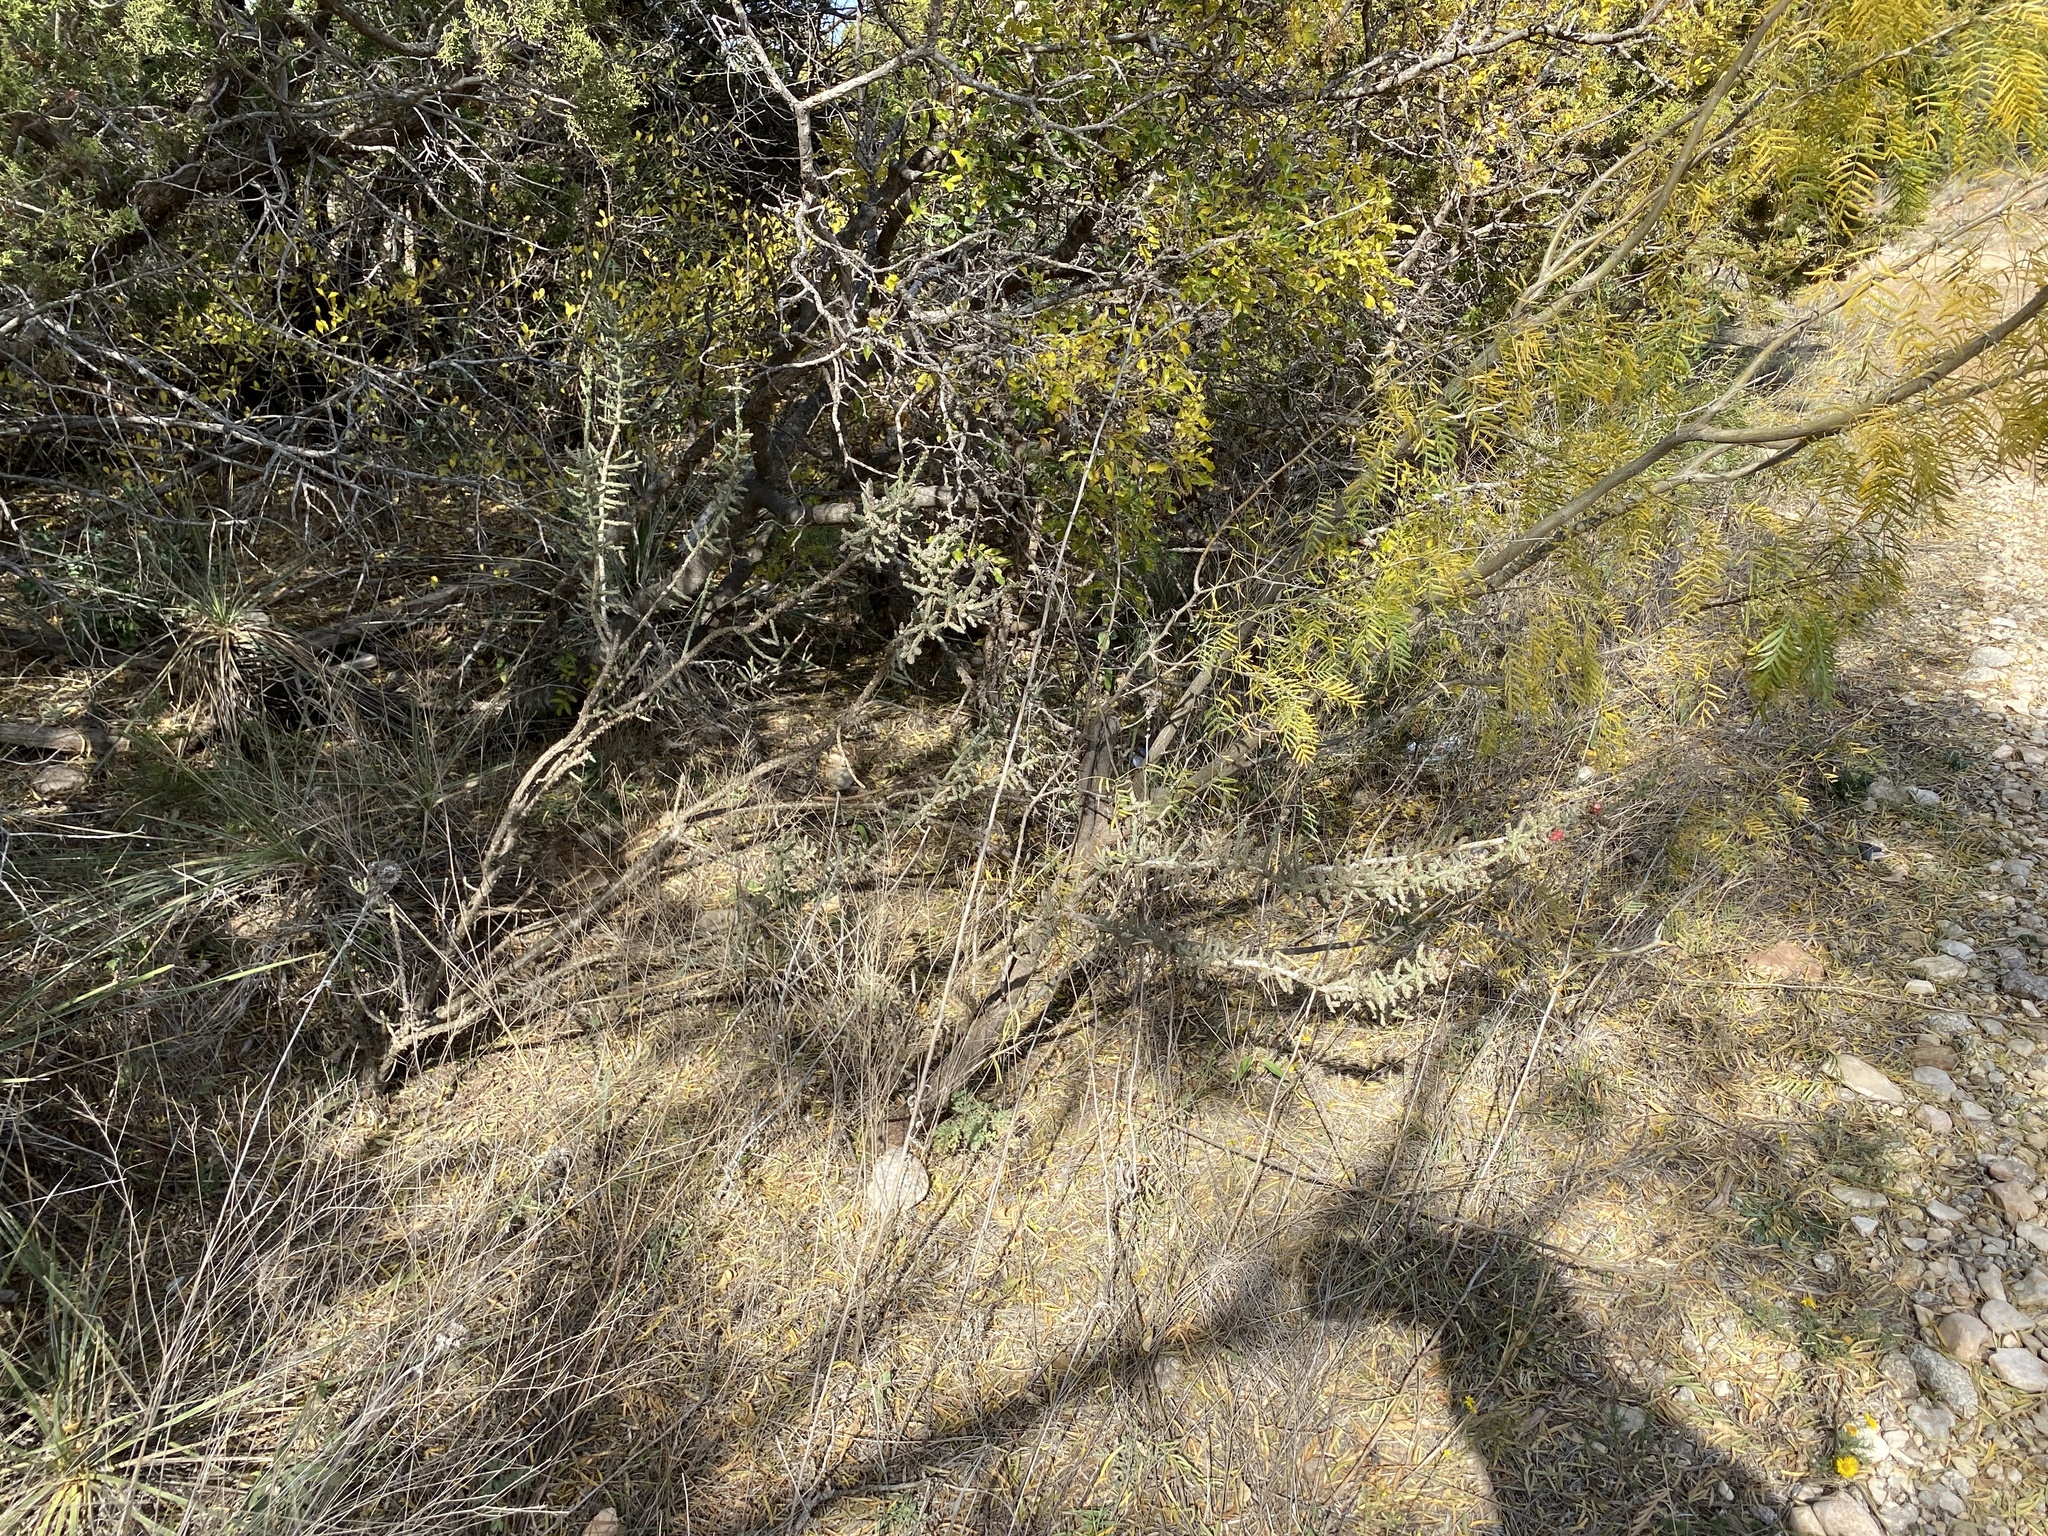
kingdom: Plantae
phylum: Tracheophyta
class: Magnoliopsida
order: Caryophyllales
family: Cactaceae
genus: Cylindropuntia
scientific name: Cylindropuntia leptocaulis
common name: Christmas cactus
